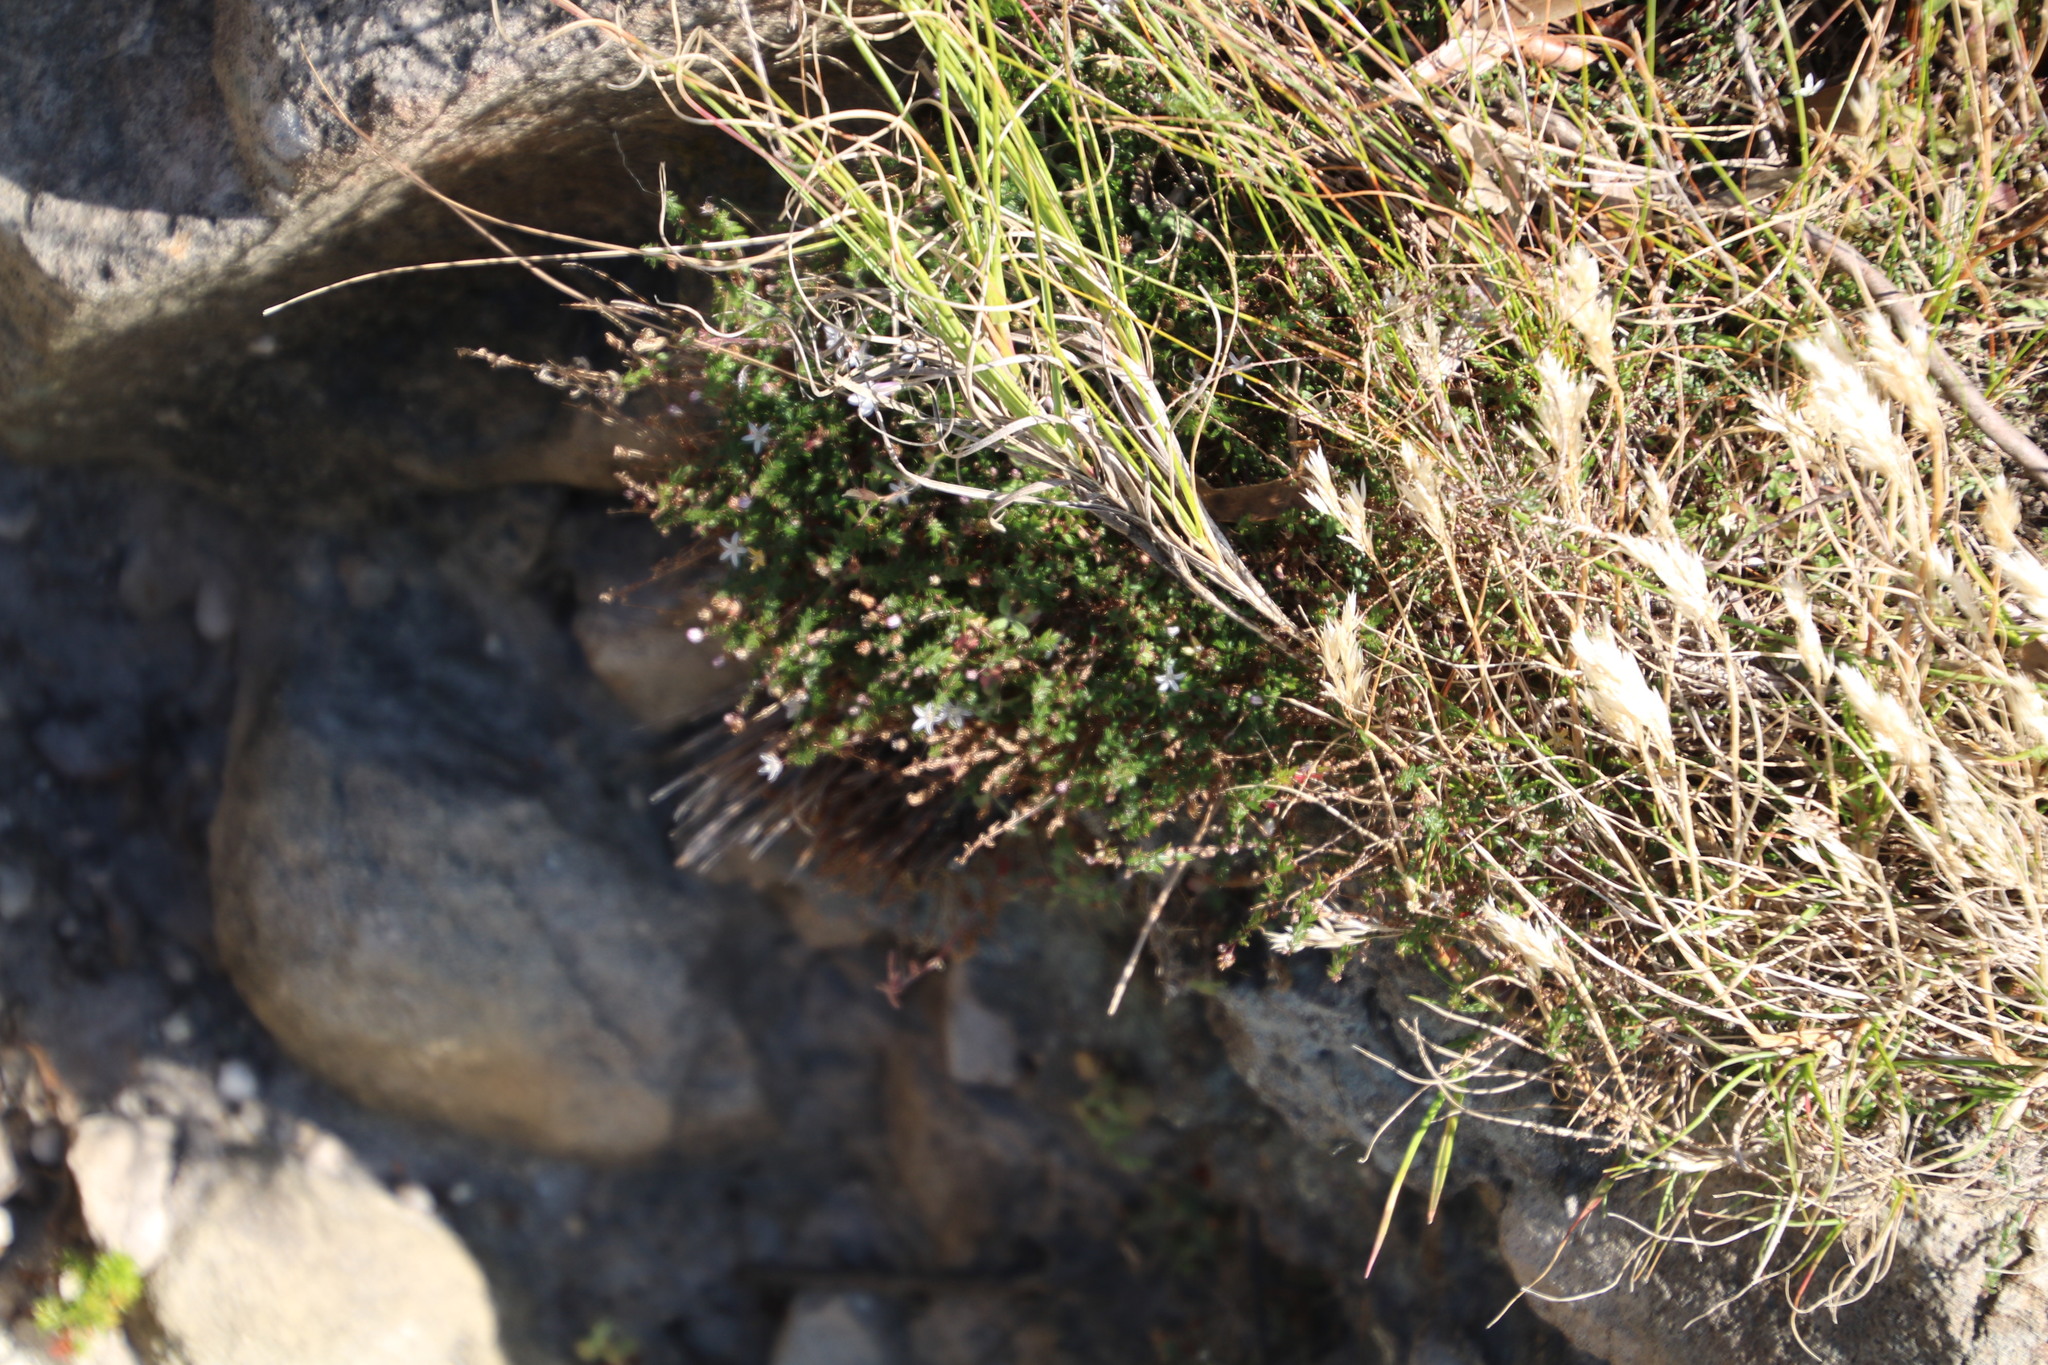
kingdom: Plantae
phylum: Tracheophyta
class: Magnoliopsida
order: Asterales
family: Campanulaceae
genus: Wahlenbergia
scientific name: Wahlenbergia parvifolia
